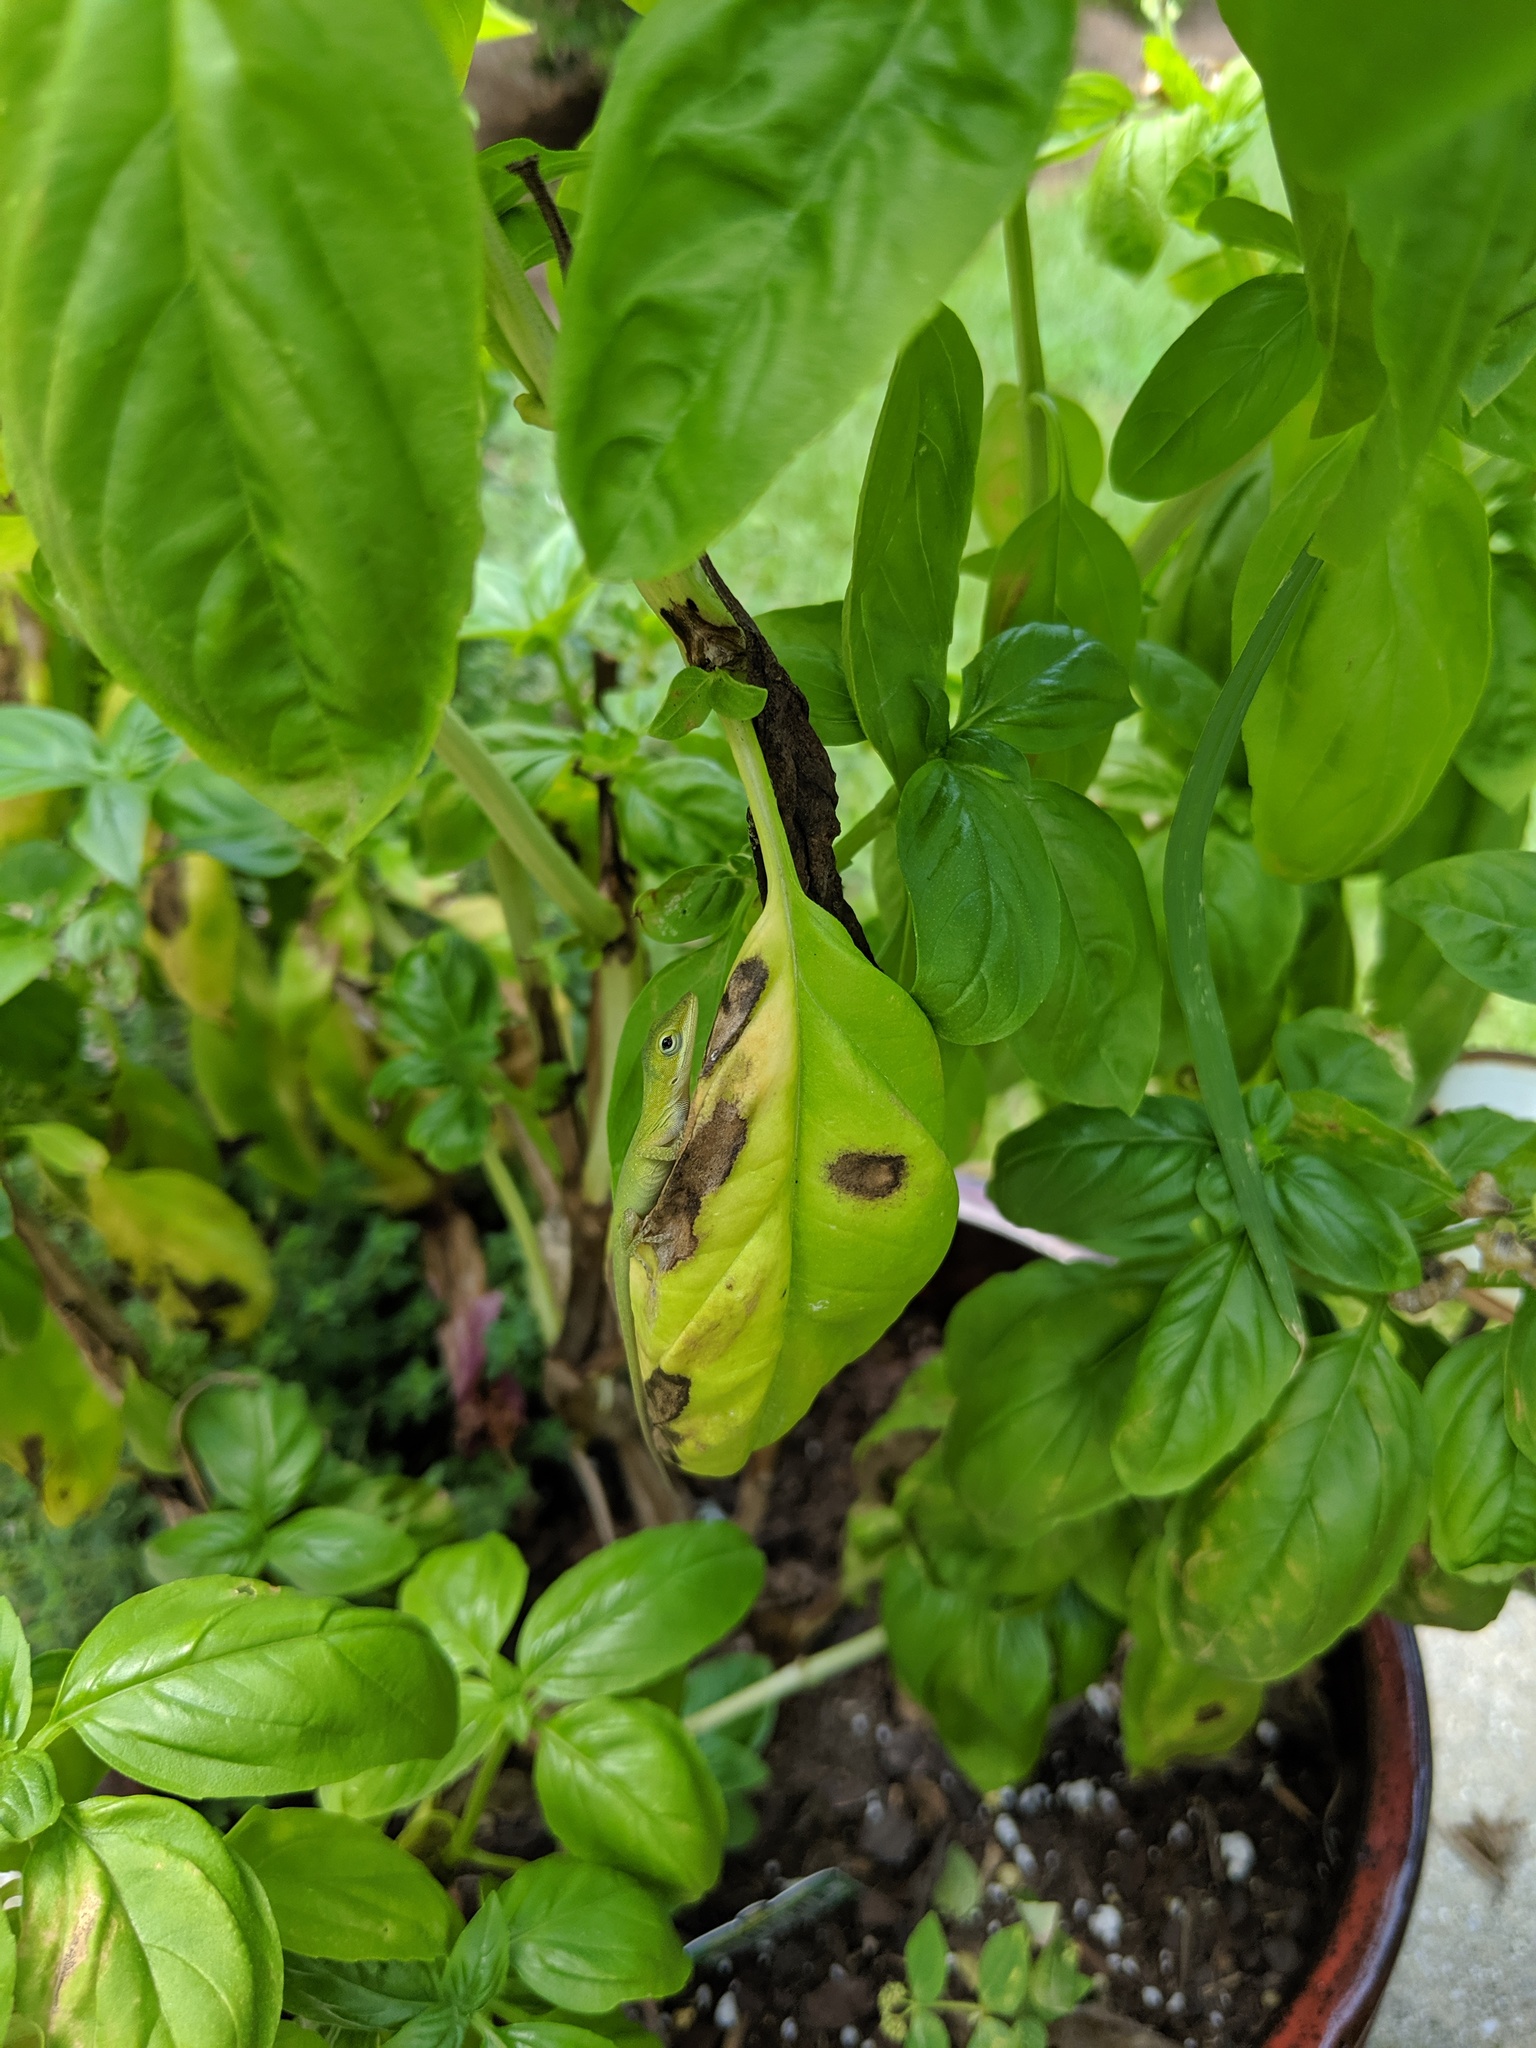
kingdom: Animalia
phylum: Chordata
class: Squamata
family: Dactyloidae
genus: Anolis
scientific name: Anolis carolinensis
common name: Green anole
